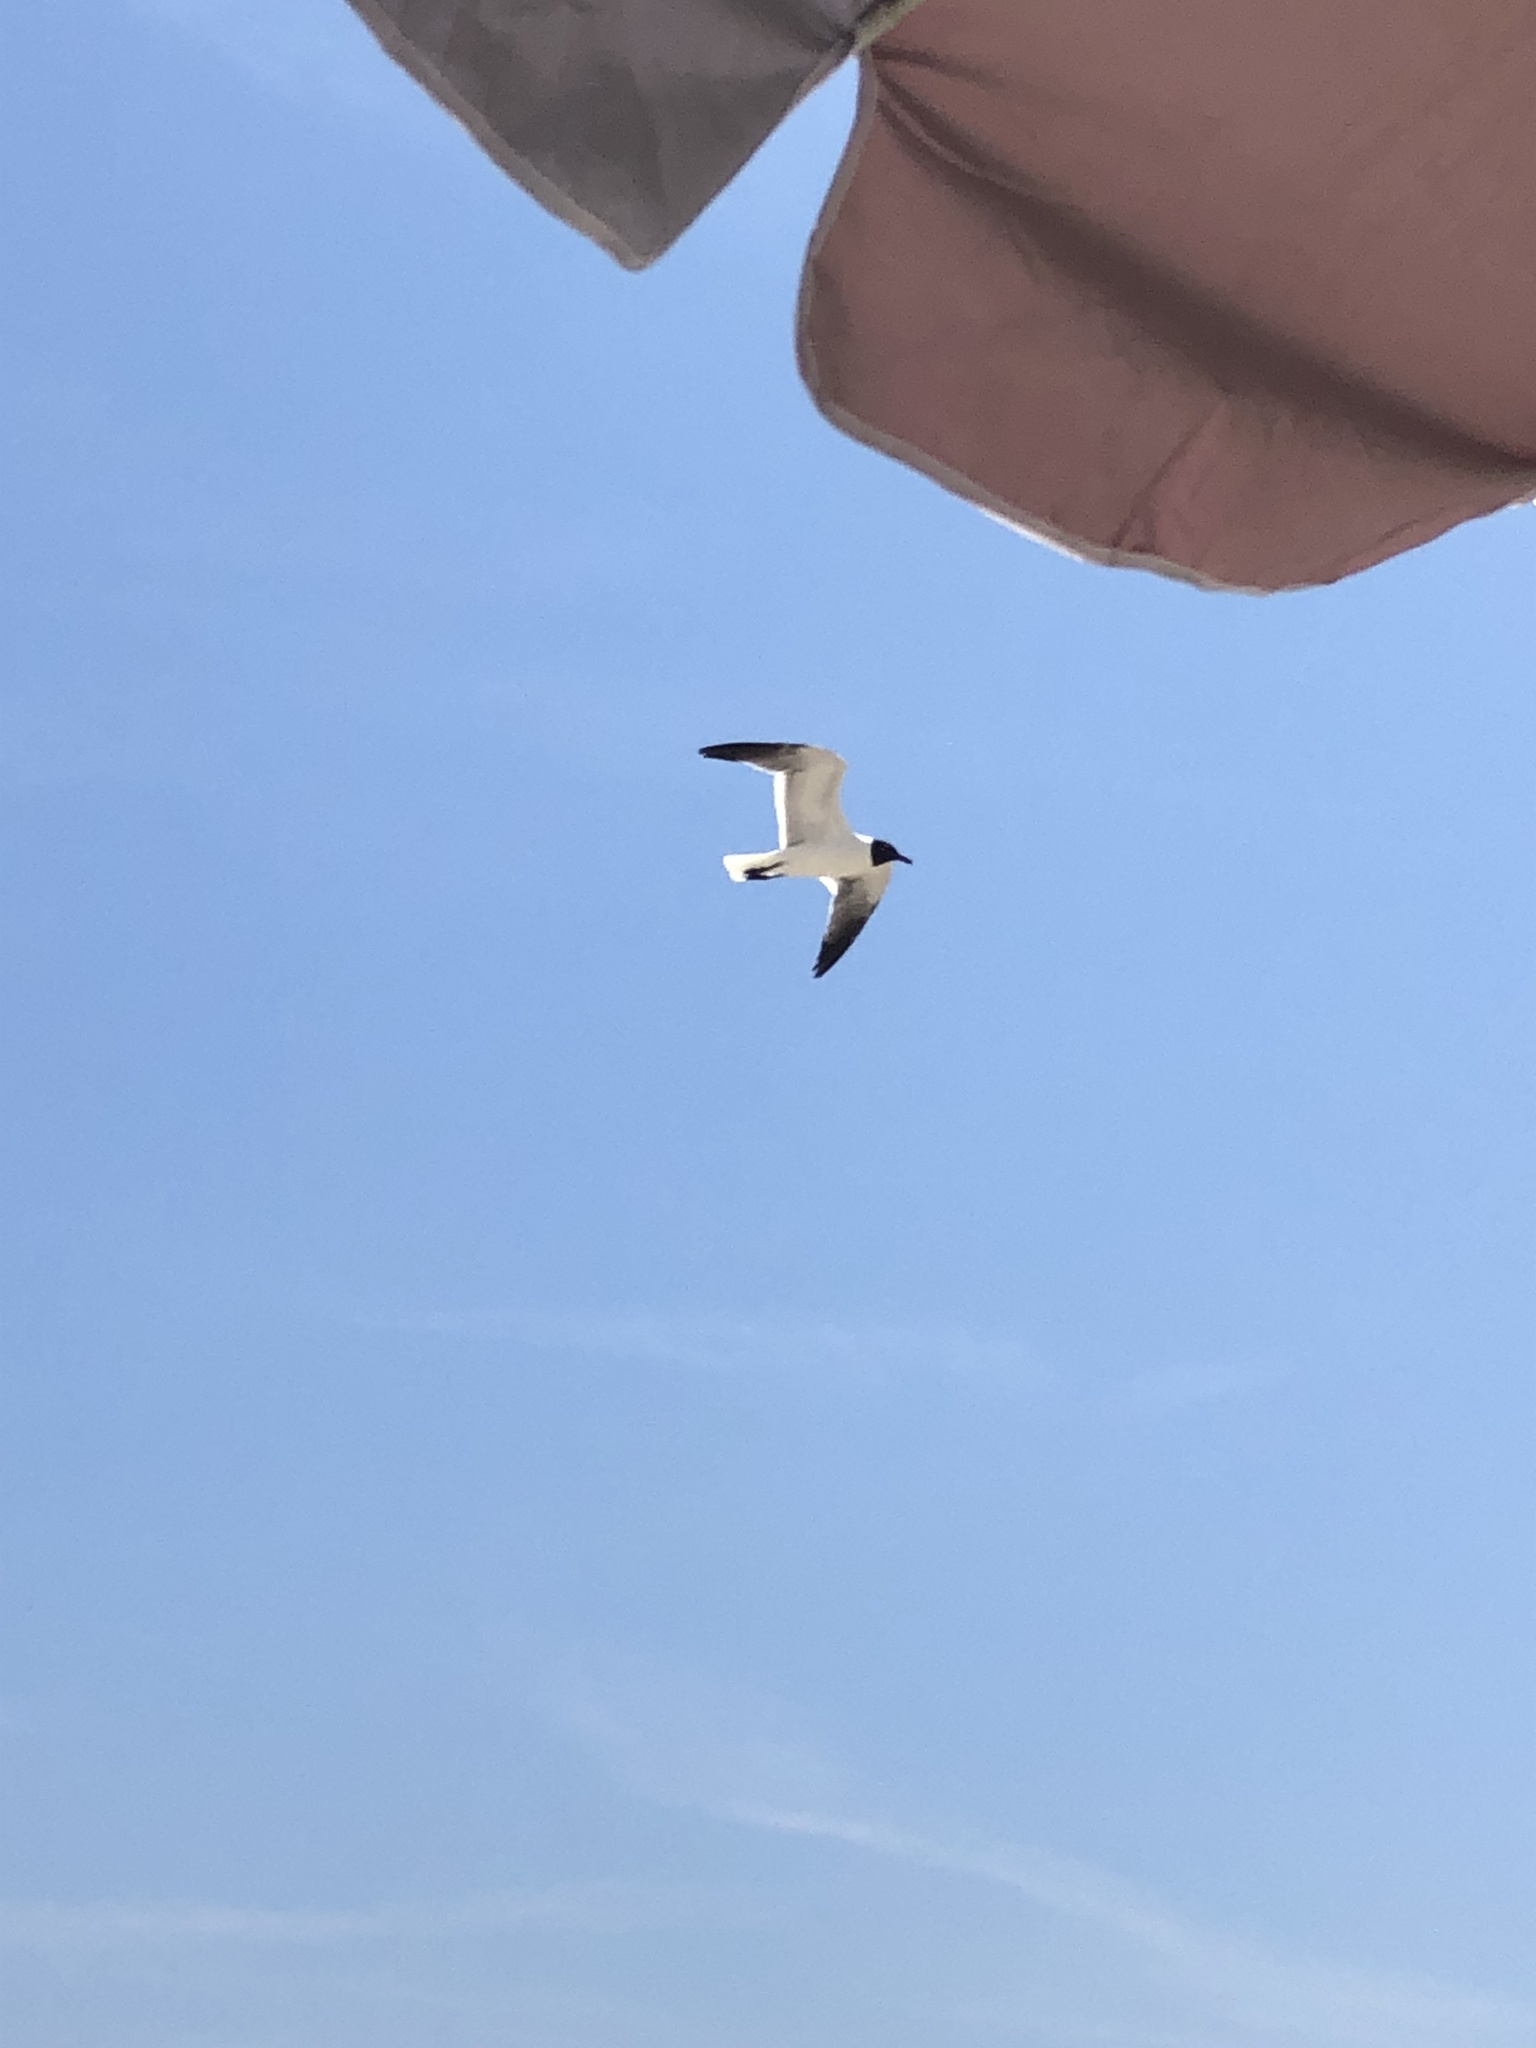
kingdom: Animalia
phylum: Chordata
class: Aves
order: Charadriiformes
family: Laridae
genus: Leucophaeus
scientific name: Leucophaeus atricilla
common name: Laughing gull
